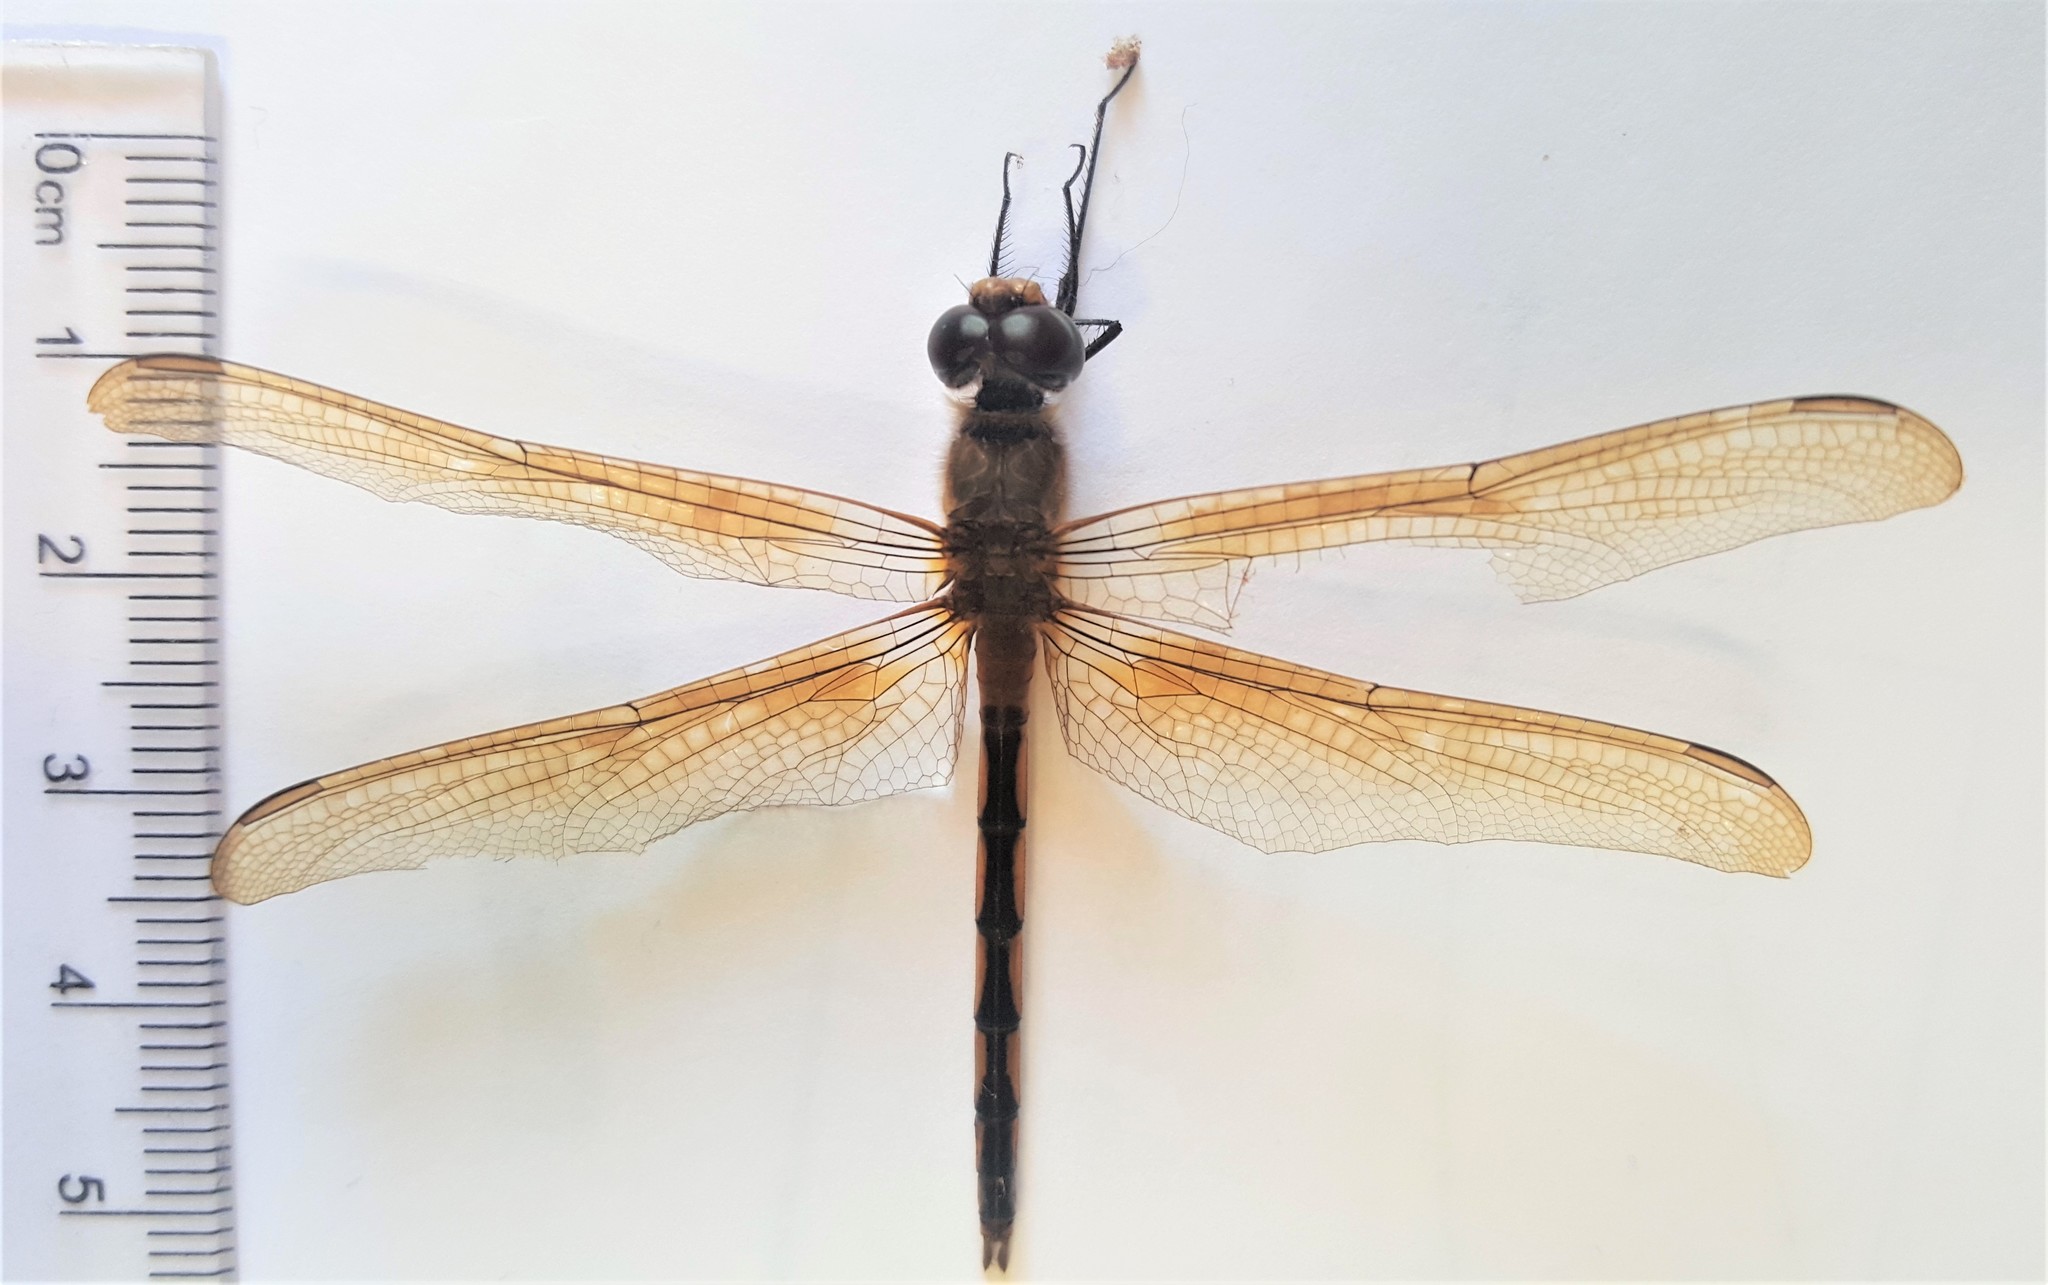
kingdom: Animalia
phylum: Arthropoda
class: Insecta
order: Odonata
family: Libellulidae
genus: Brachymesia
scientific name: Brachymesia herbida
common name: Tawny pennant
